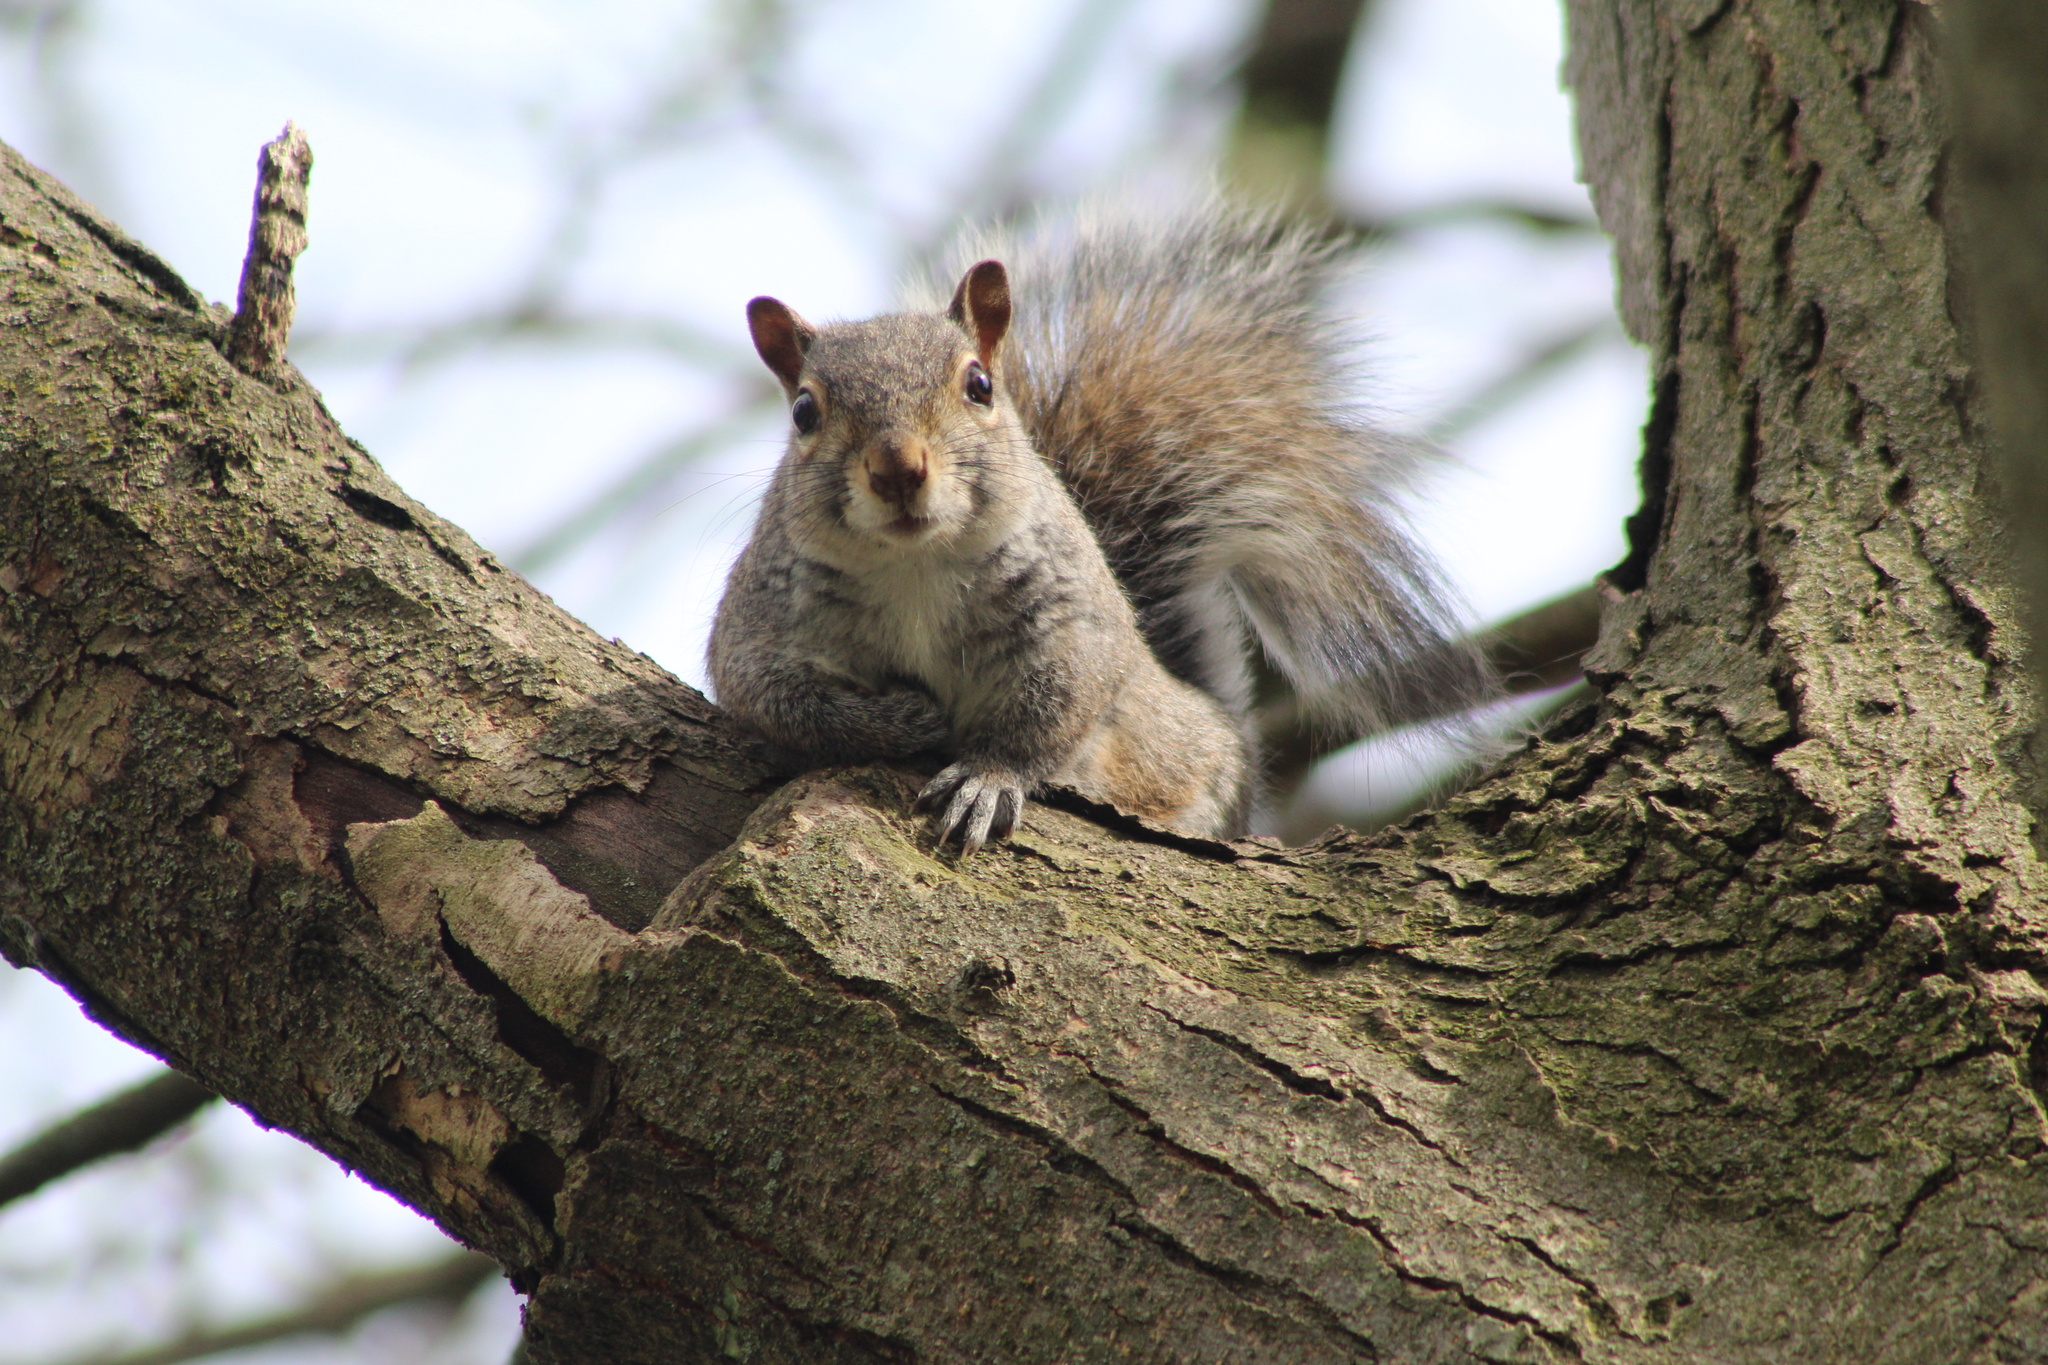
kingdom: Animalia
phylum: Chordata
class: Mammalia
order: Rodentia
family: Sciuridae
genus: Sciurus
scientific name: Sciurus carolinensis
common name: Eastern gray squirrel
